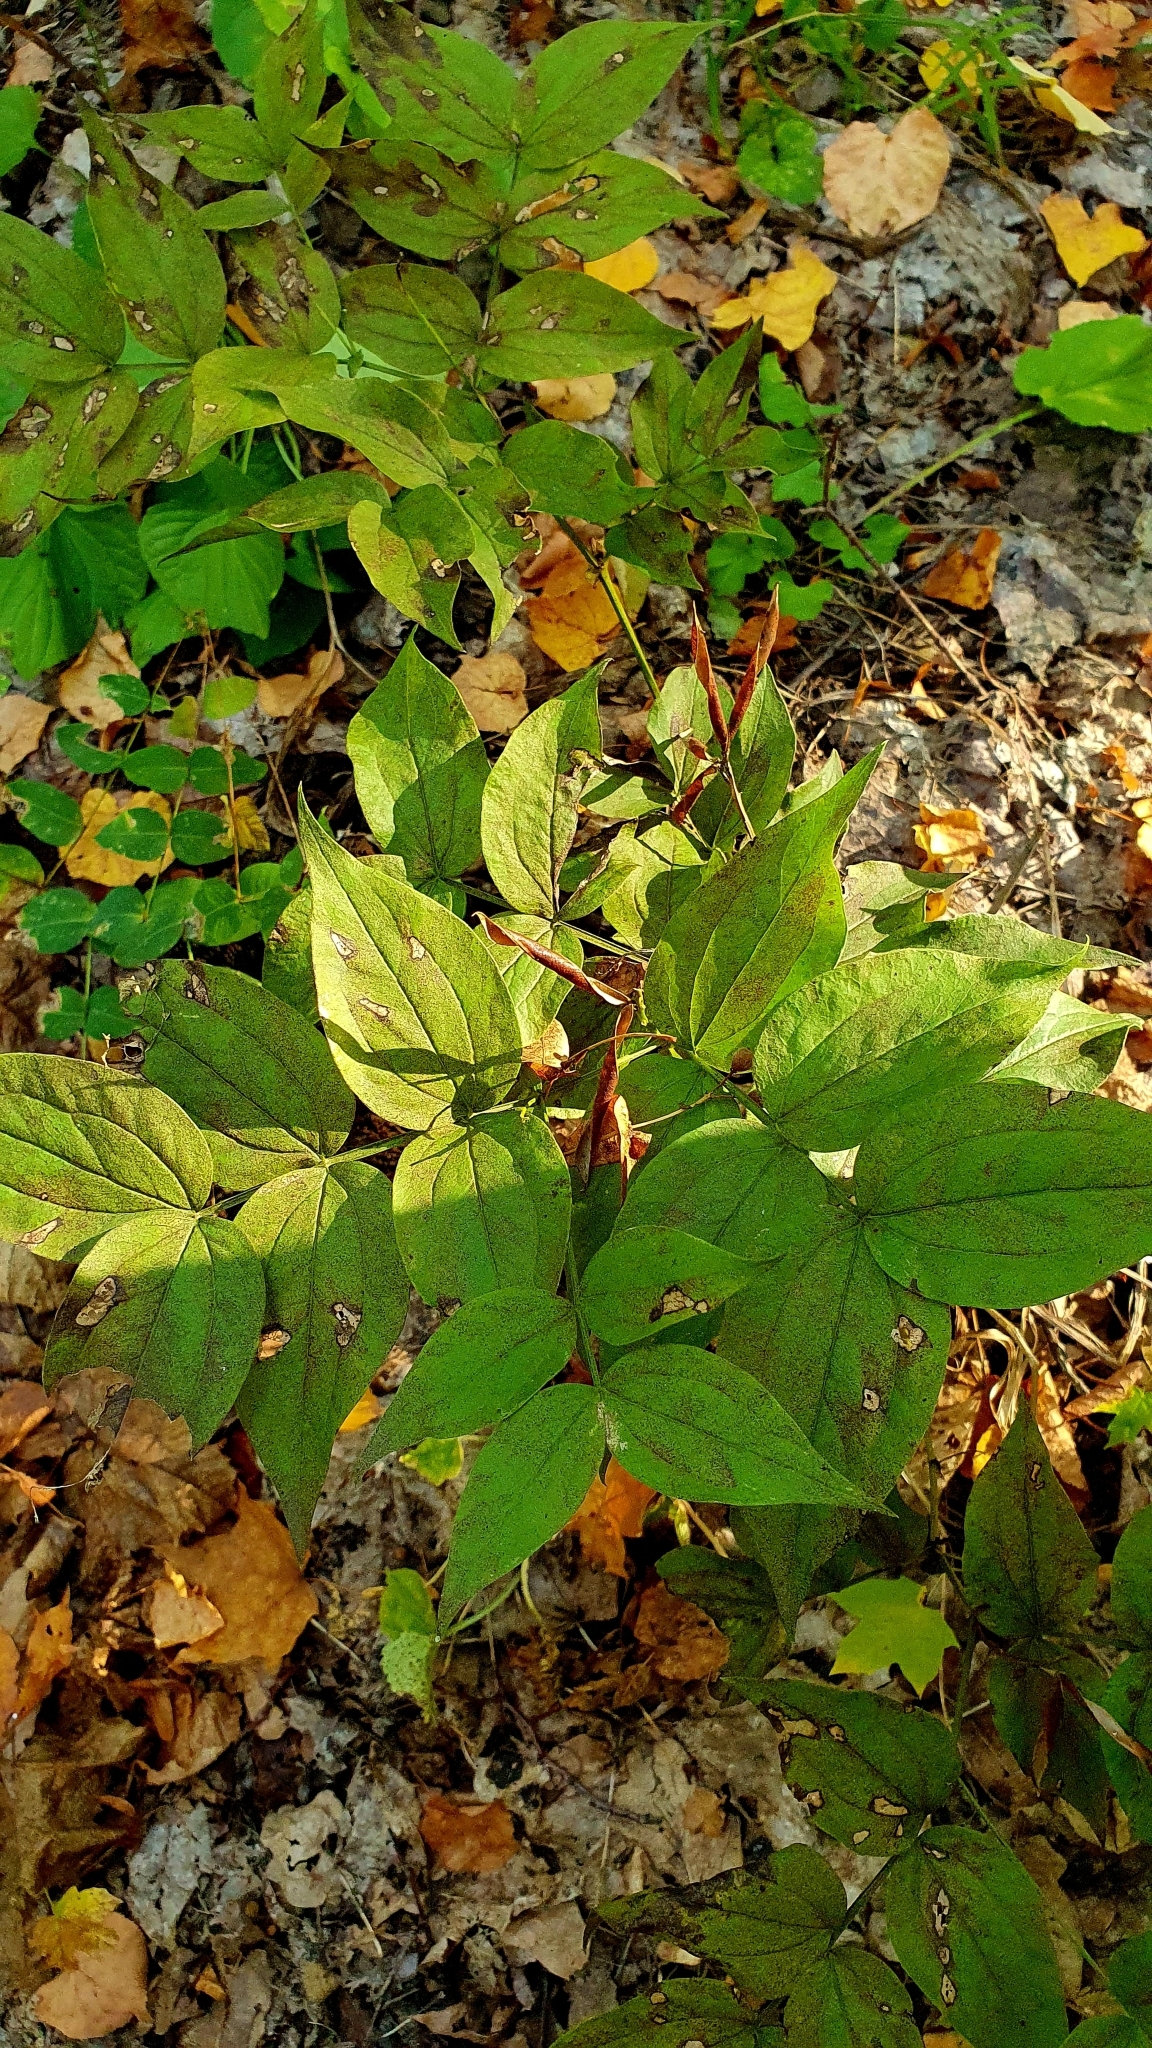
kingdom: Plantae
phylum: Tracheophyta
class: Magnoliopsida
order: Fabales
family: Fabaceae
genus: Lathyrus
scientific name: Lathyrus vernus
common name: Spring pea
